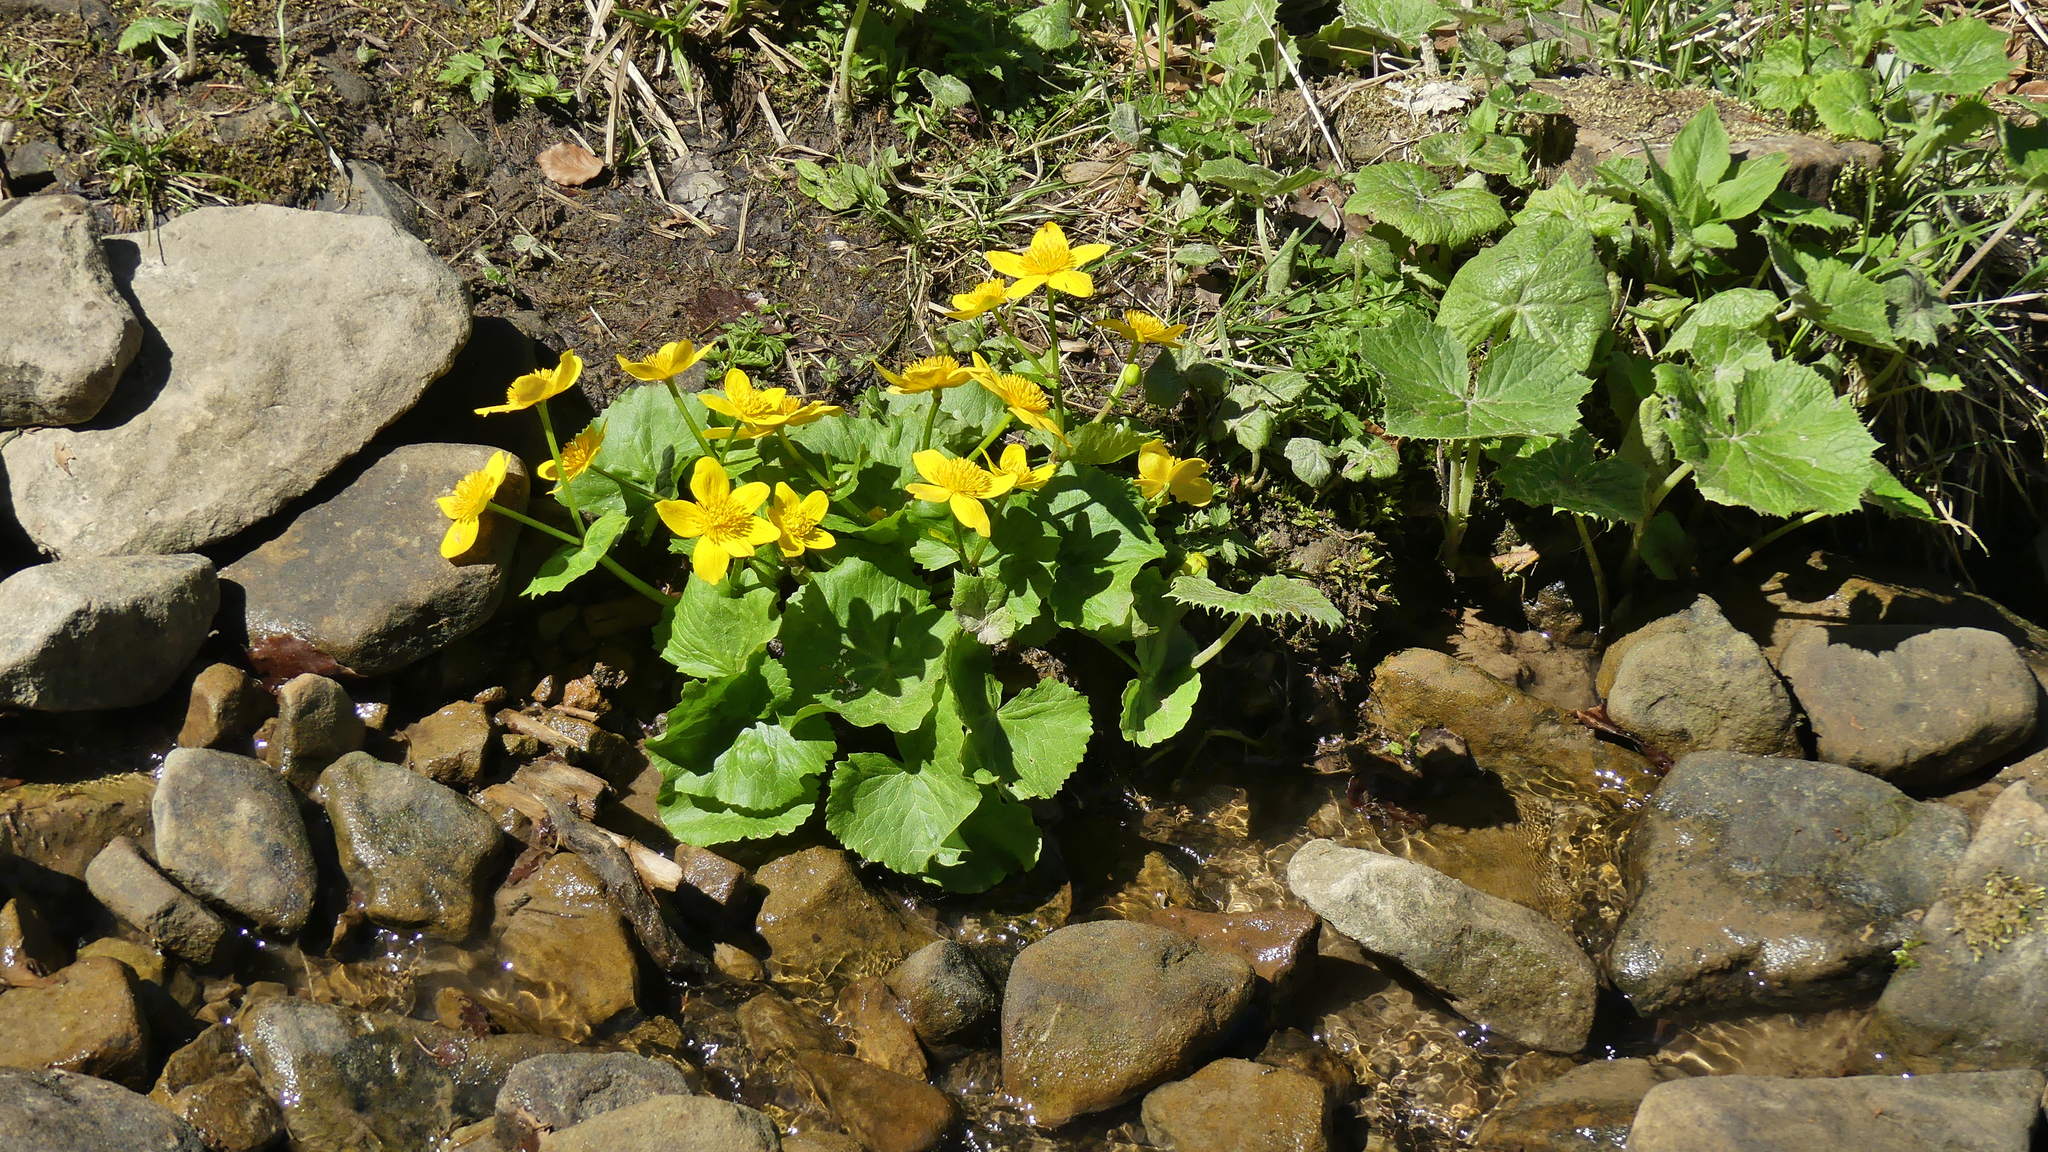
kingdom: Plantae
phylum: Tracheophyta
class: Magnoliopsida
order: Ranunculales
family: Ranunculaceae
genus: Caltha
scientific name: Caltha palustris
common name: Marsh marigold
